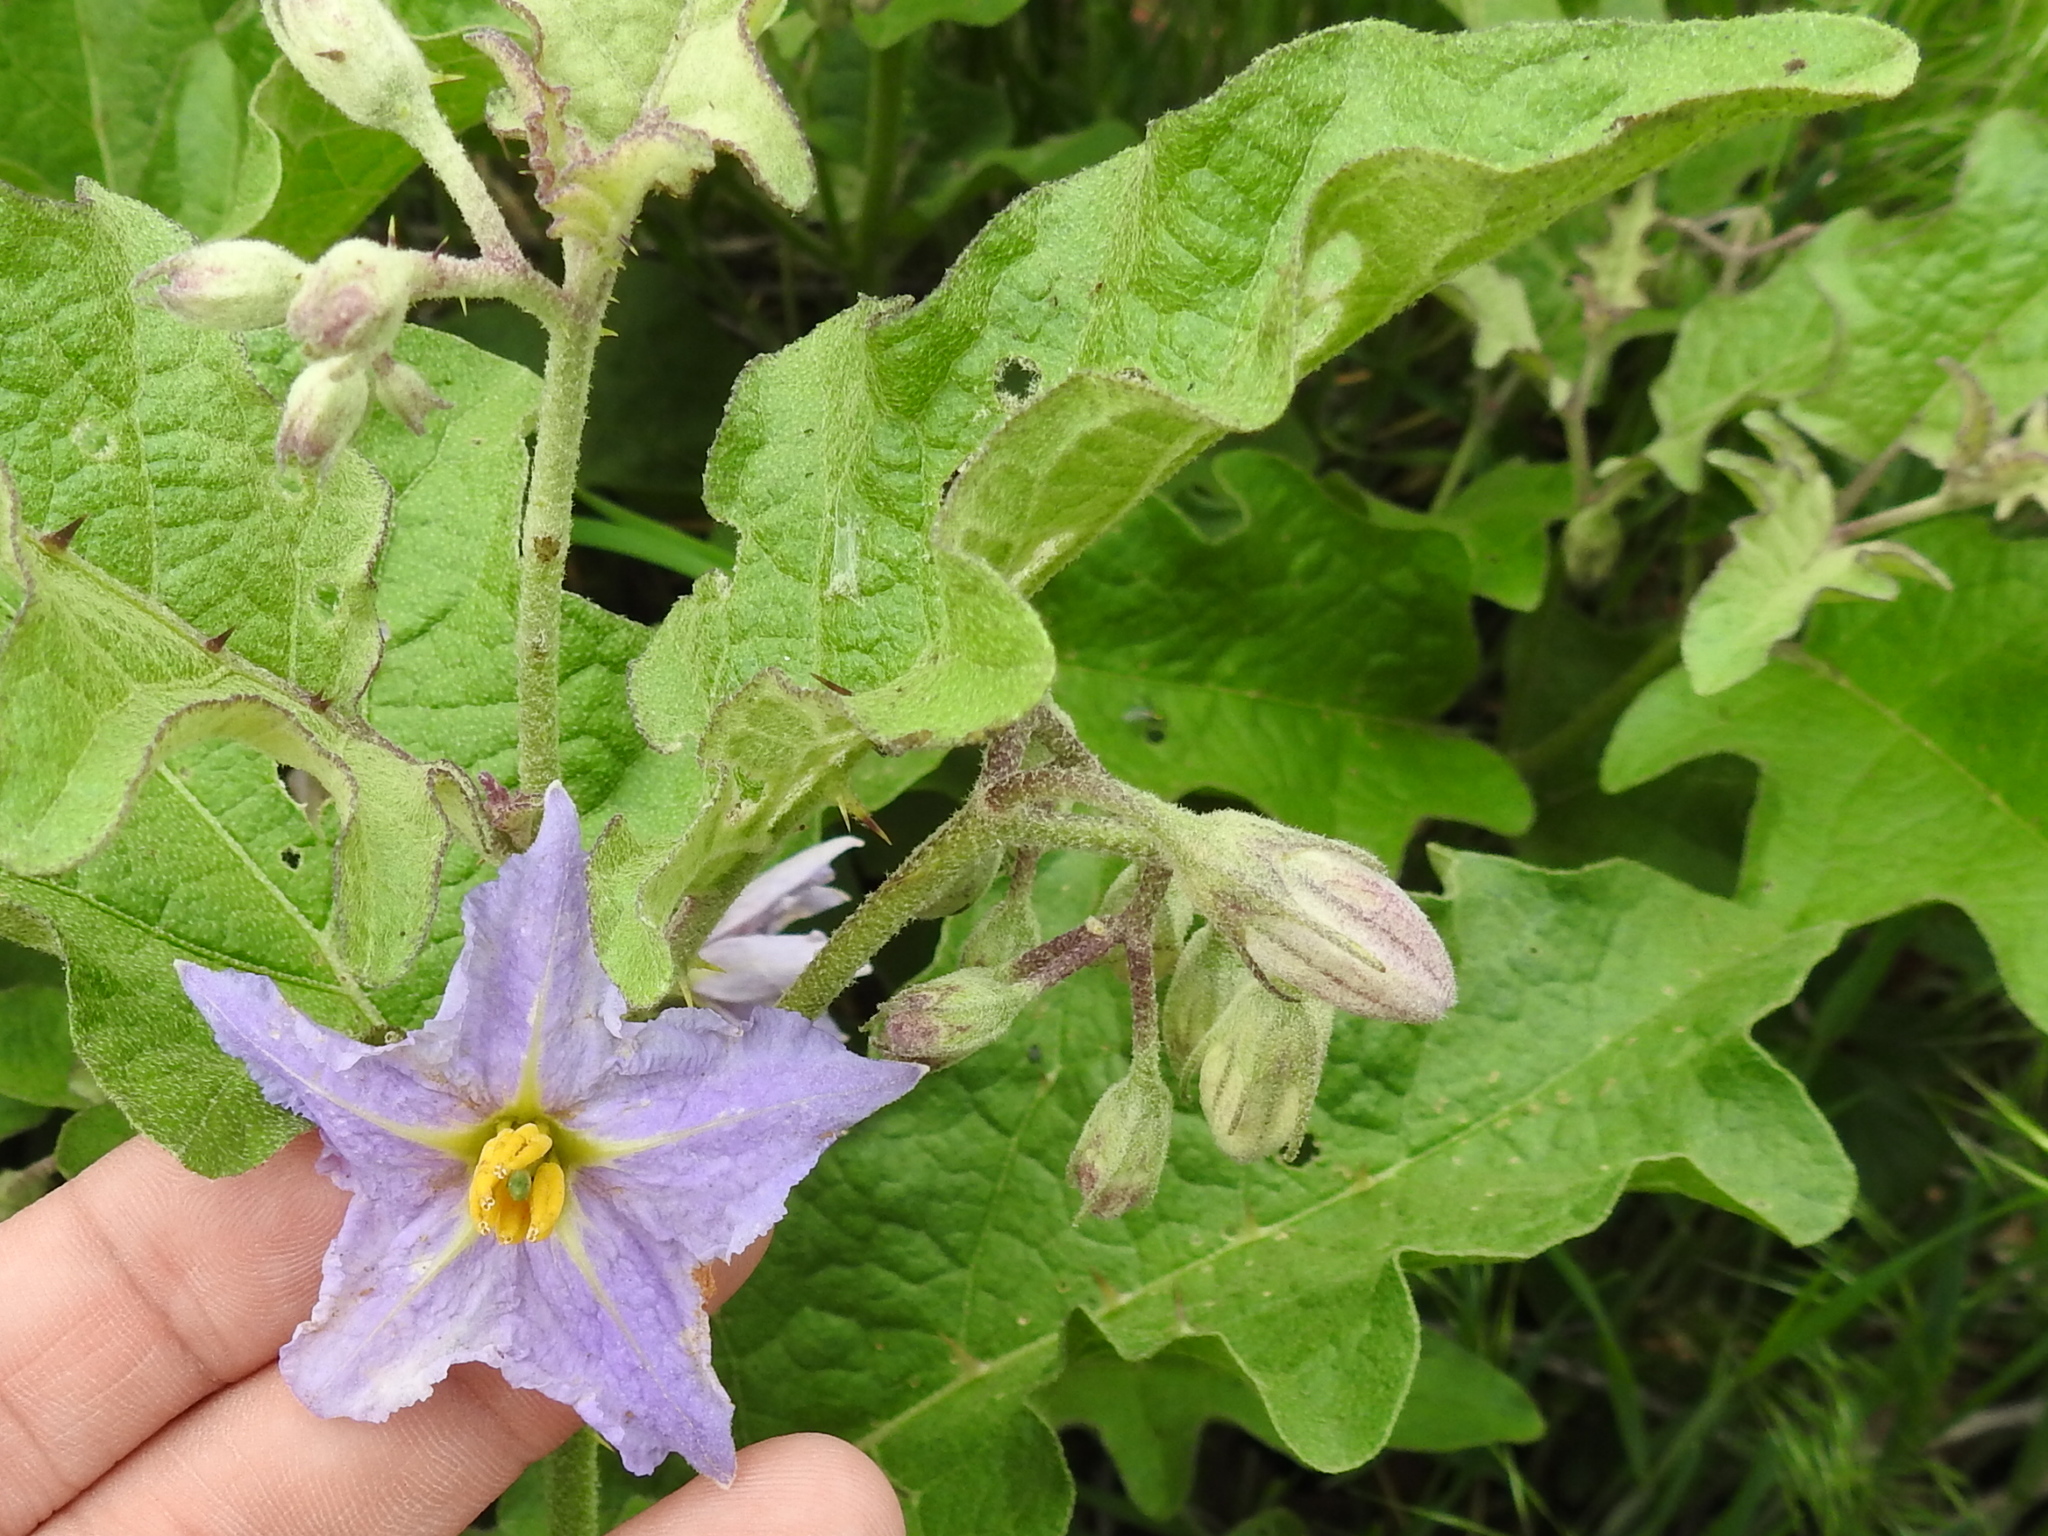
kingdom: Plantae
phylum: Tracheophyta
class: Magnoliopsida
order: Solanales
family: Solanaceae
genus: Solanum
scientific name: Solanum dimidiatum
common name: Carolina horse-nettle
